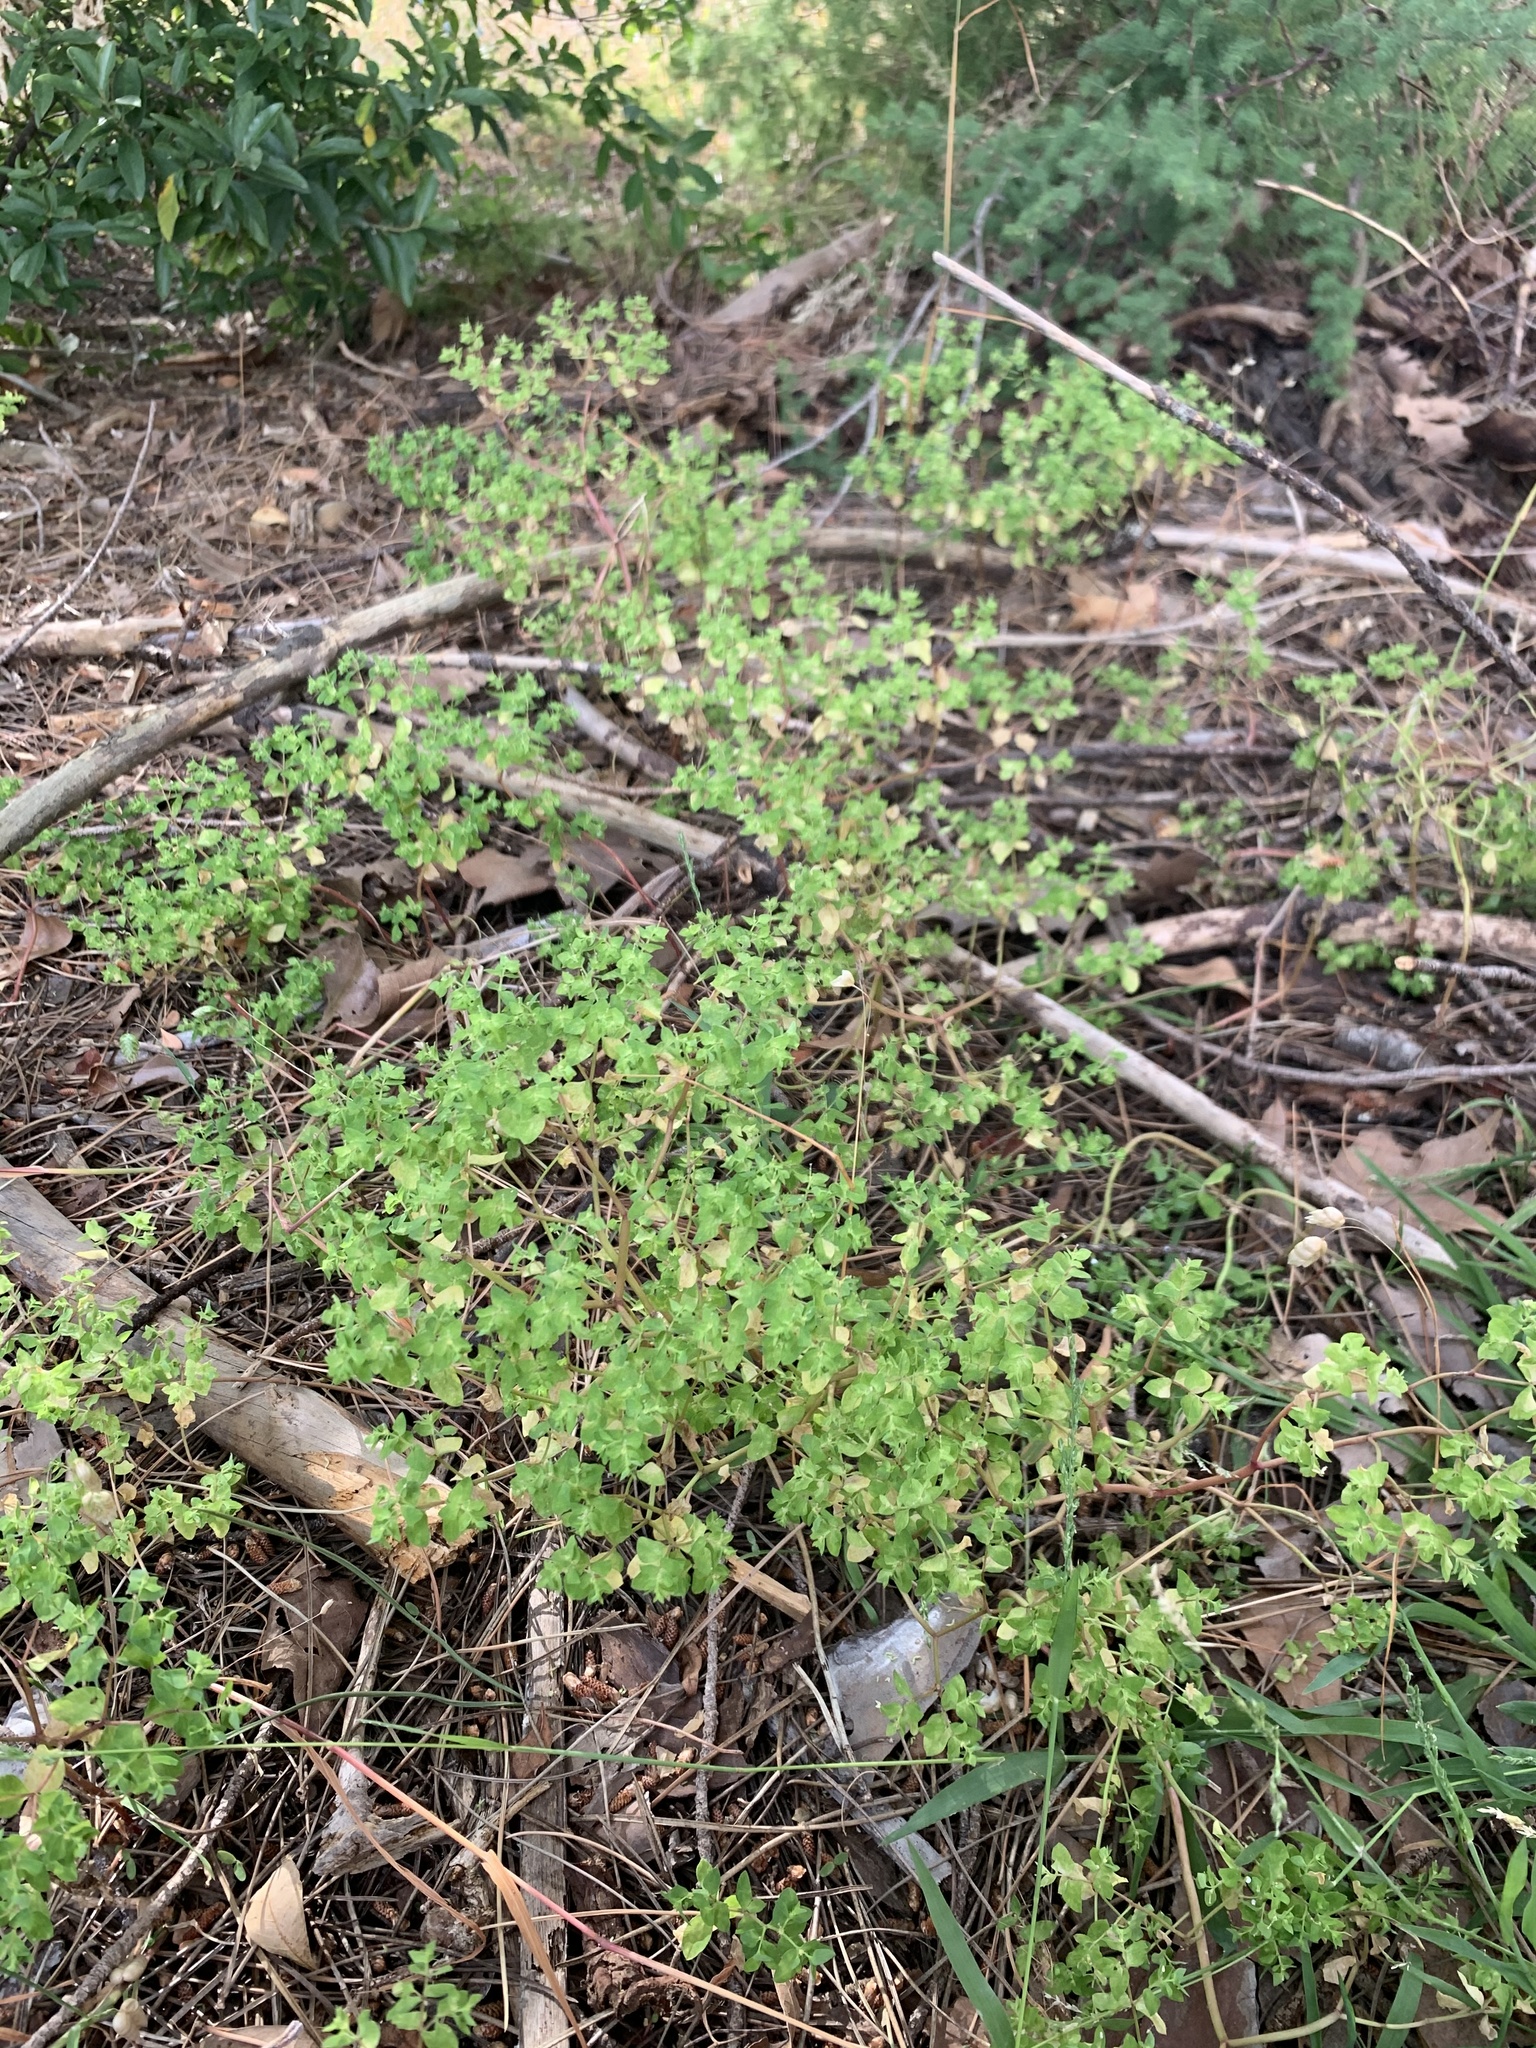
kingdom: Plantae
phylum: Tracheophyta
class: Magnoliopsida
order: Malpighiales
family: Euphorbiaceae
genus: Euphorbia
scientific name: Euphorbia peplus
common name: Petty spurge
